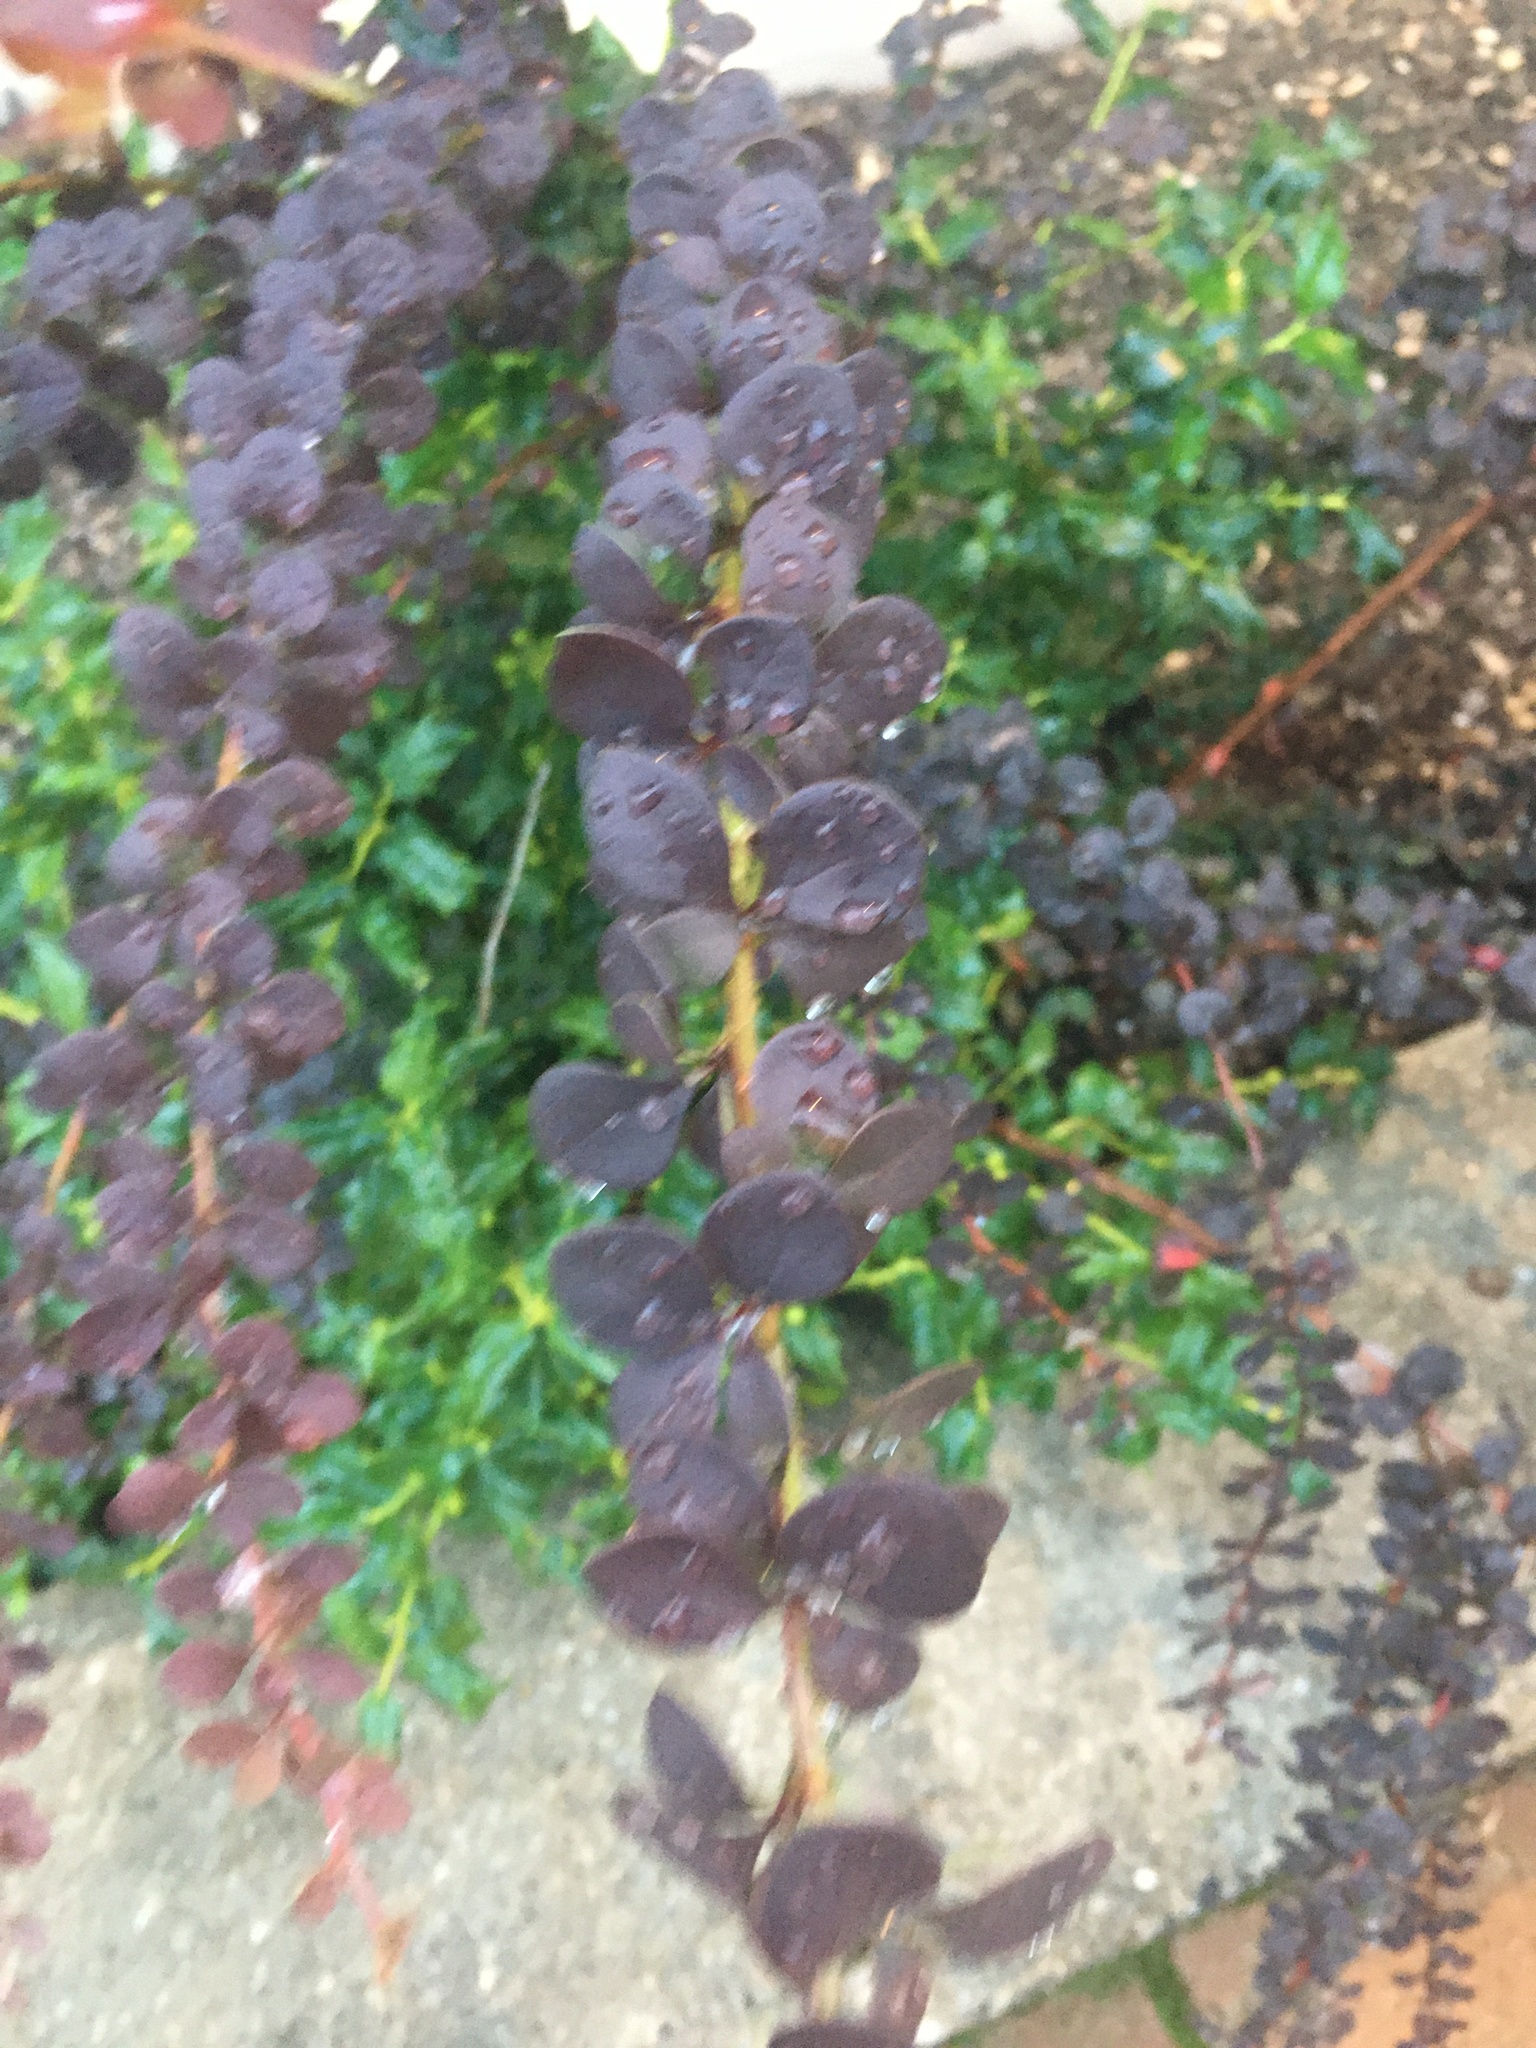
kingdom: Plantae
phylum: Tracheophyta
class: Magnoliopsida
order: Ranunculales
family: Berberidaceae
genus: Berberis
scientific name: Berberis thunbergii
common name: Japanese barberry
